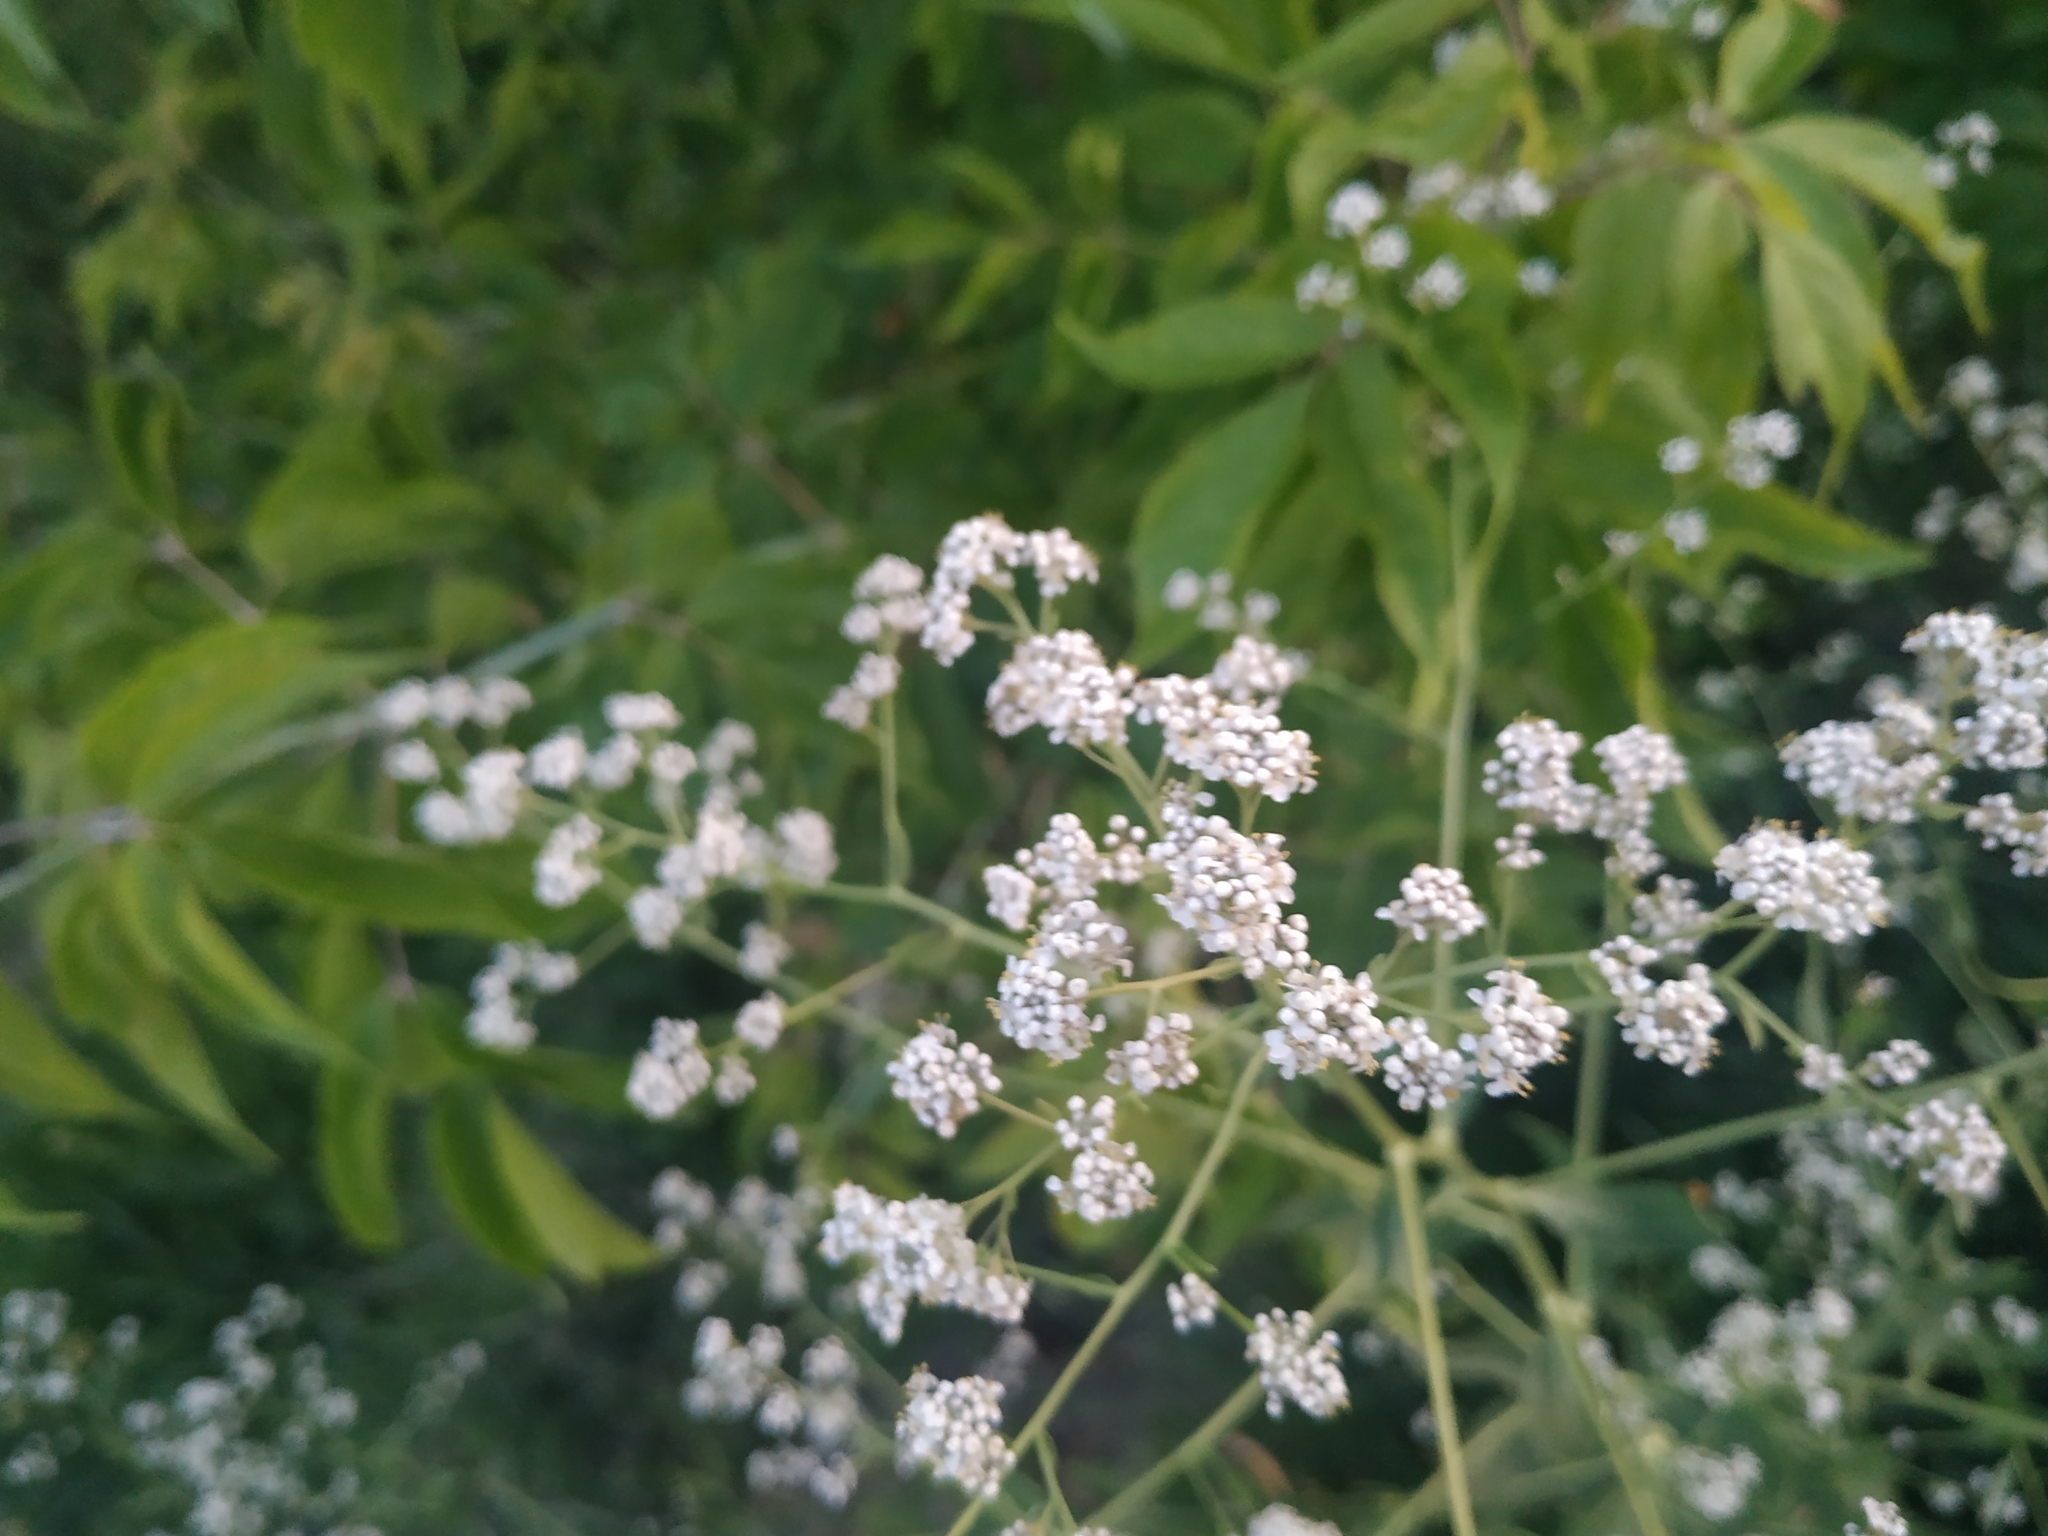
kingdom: Plantae
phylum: Tracheophyta
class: Magnoliopsida
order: Brassicales
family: Brassicaceae
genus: Lepidium
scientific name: Lepidium latifolium
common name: Dittander
